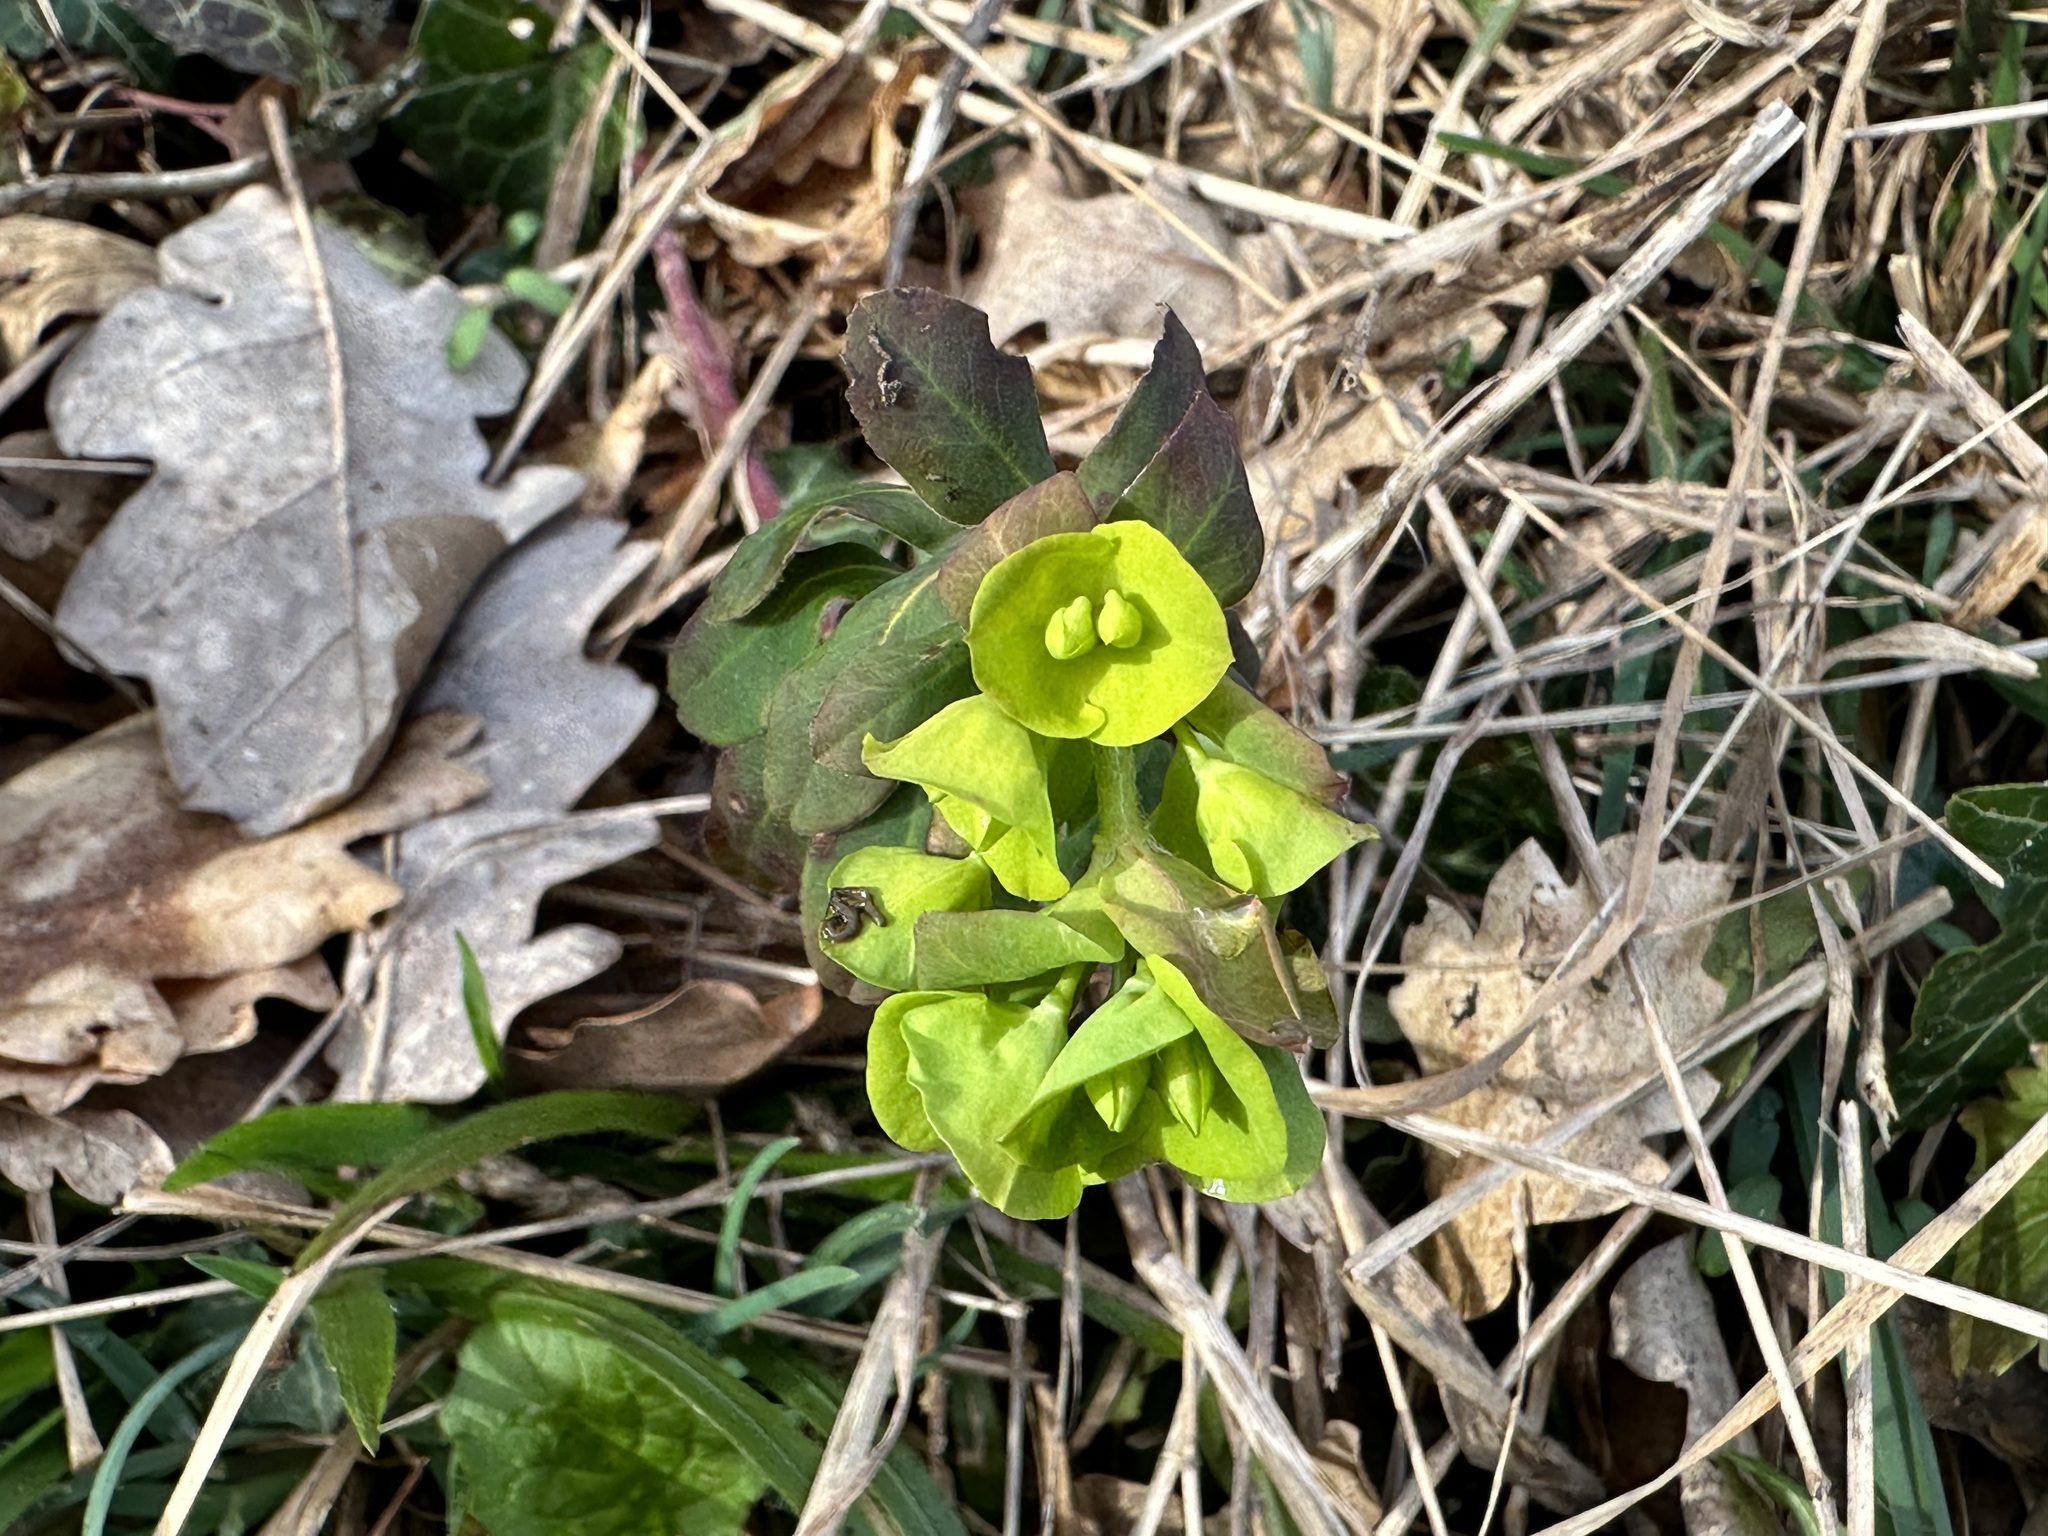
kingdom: Plantae
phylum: Tracheophyta
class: Magnoliopsida
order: Malpighiales
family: Euphorbiaceae
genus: Euphorbia
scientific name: Euphorbia amygdaloides
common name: Wood spurge
